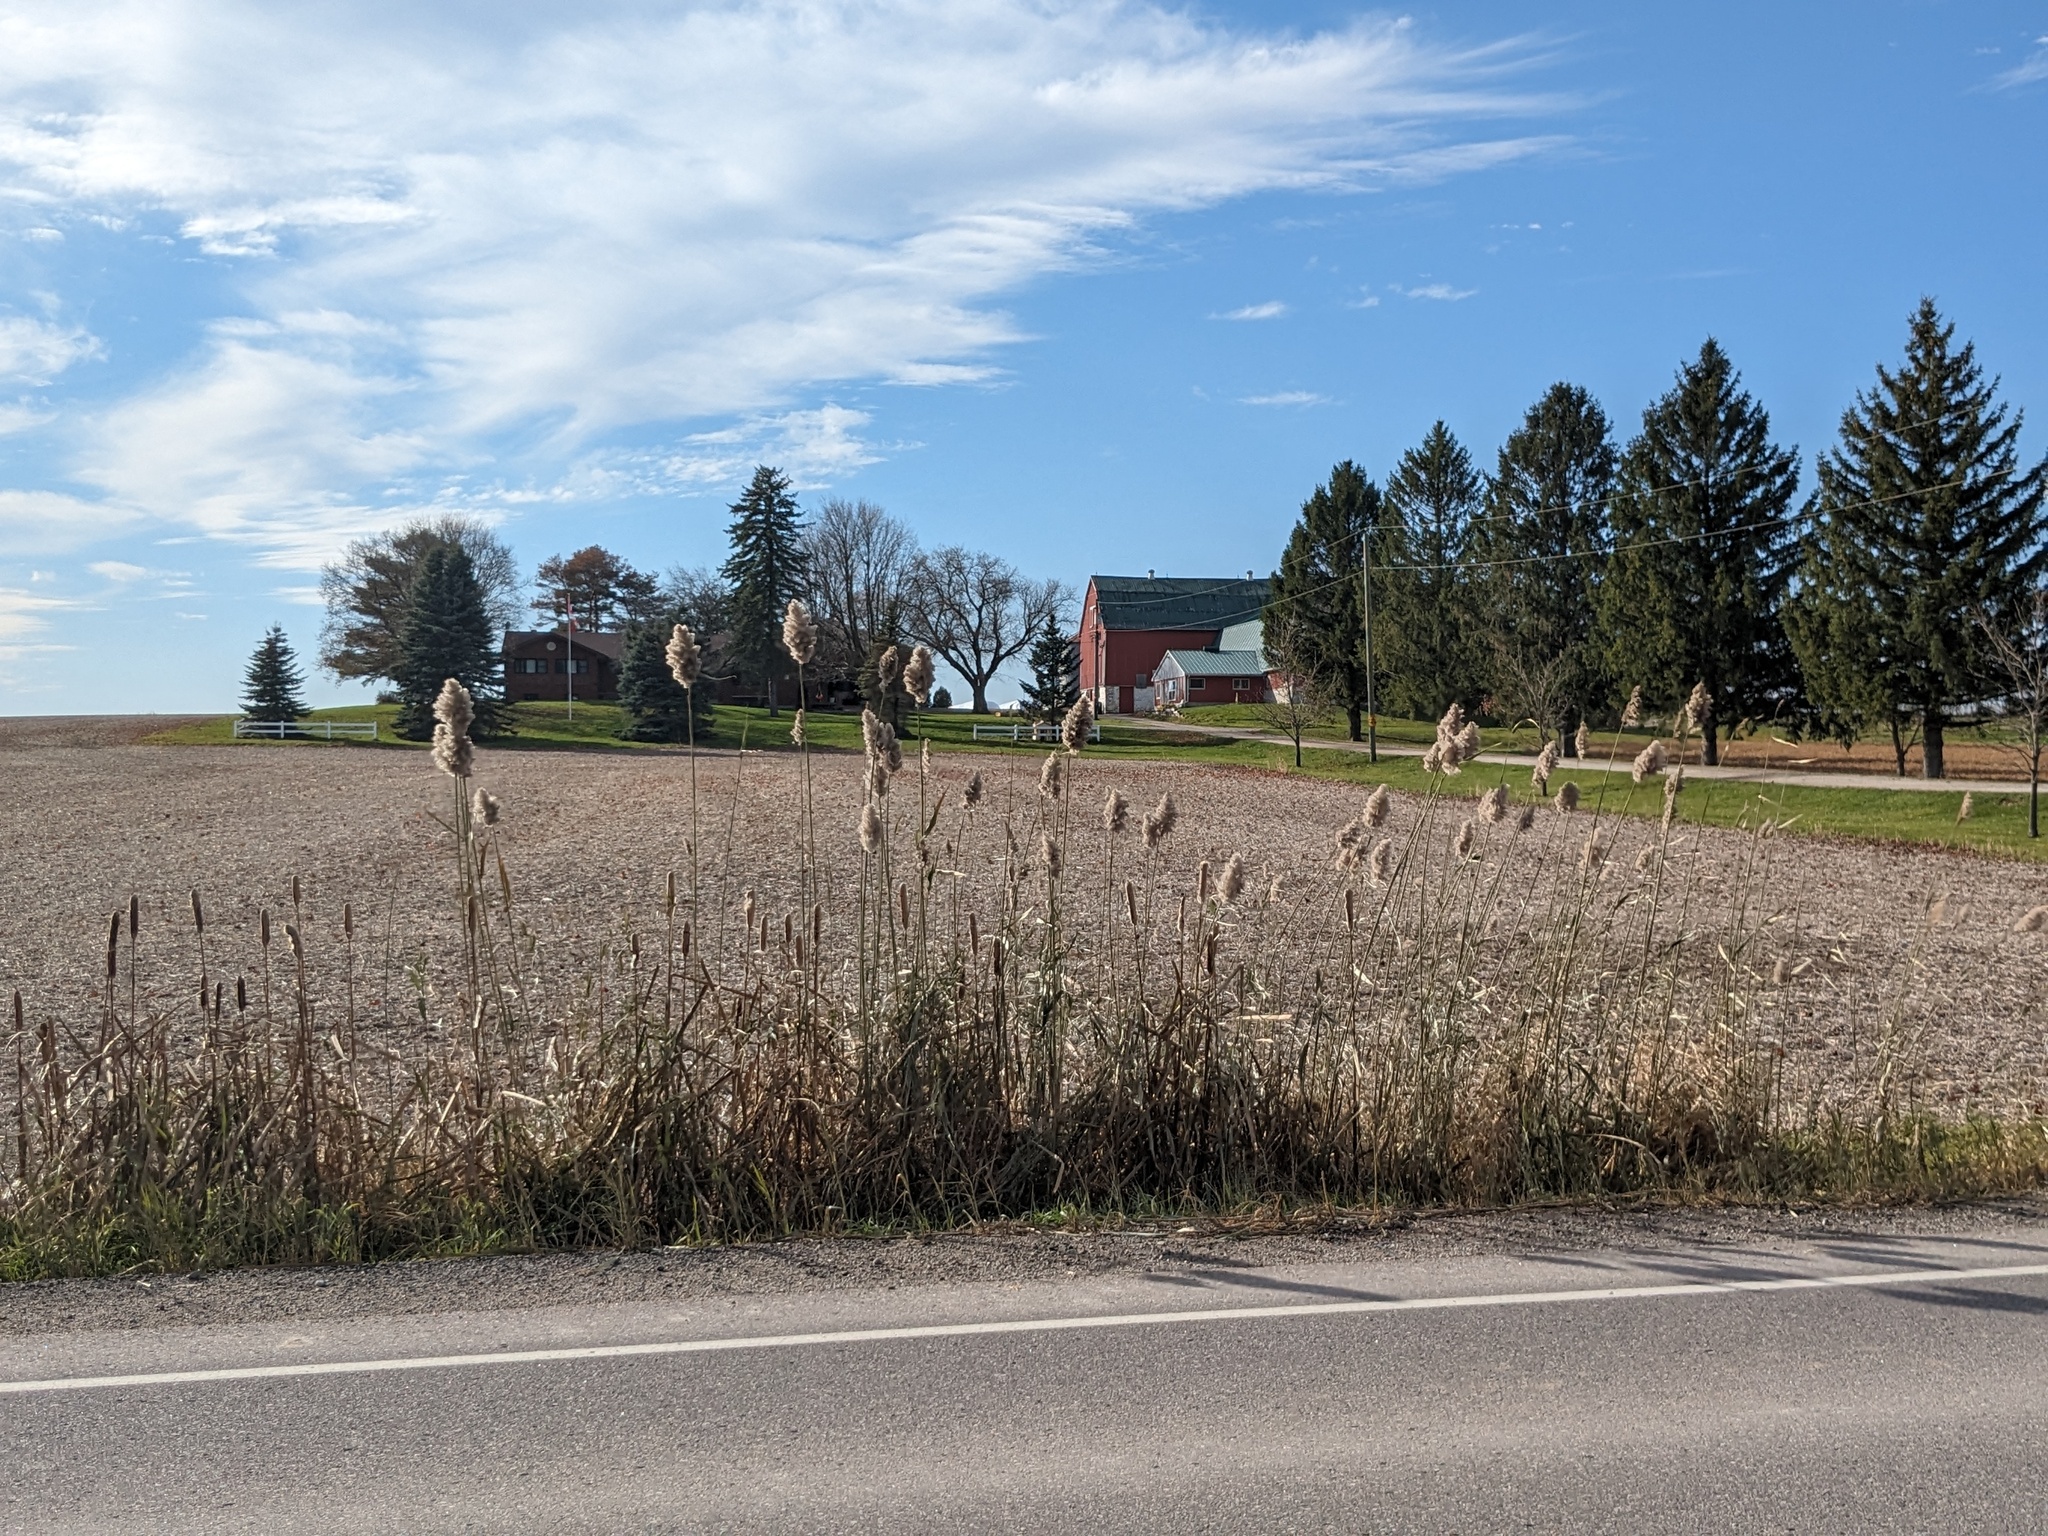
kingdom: Plantae
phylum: Tracheophyta
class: Liliopsida
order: Poales
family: Poaceae
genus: Phragmites
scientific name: Phragmites australis
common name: Common reed
